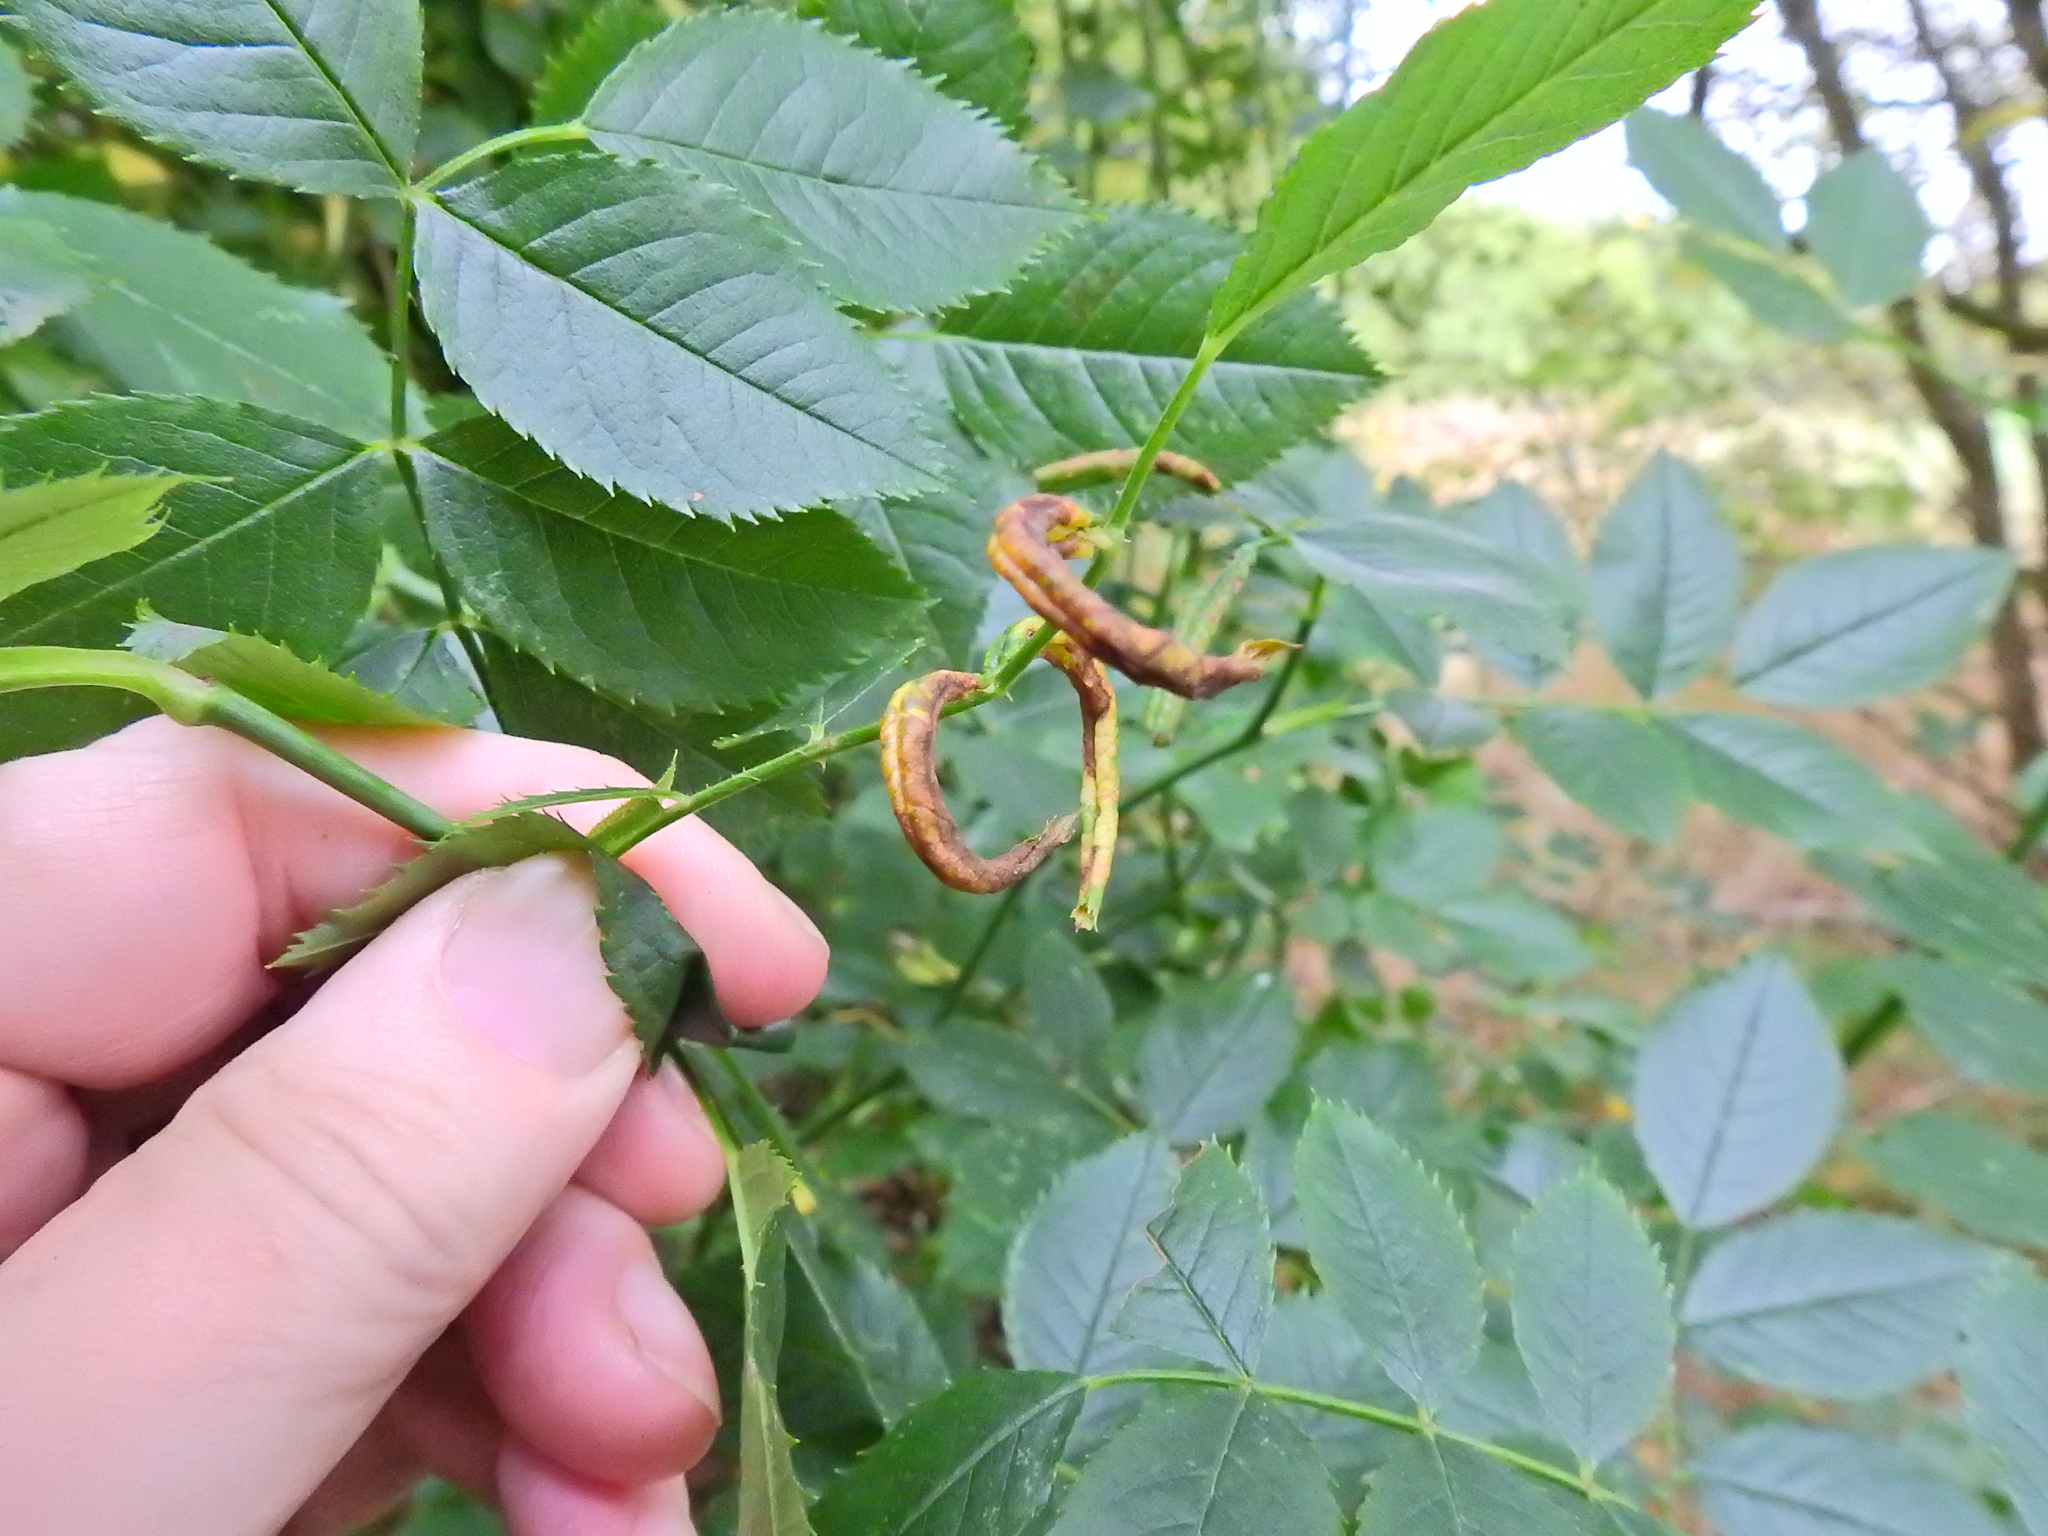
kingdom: Animalia
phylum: Arthropoda
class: Insecta
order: Hymenoptera
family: Tenthredinidae
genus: Blennocampa
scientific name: Blennocampa phyllocolpa
